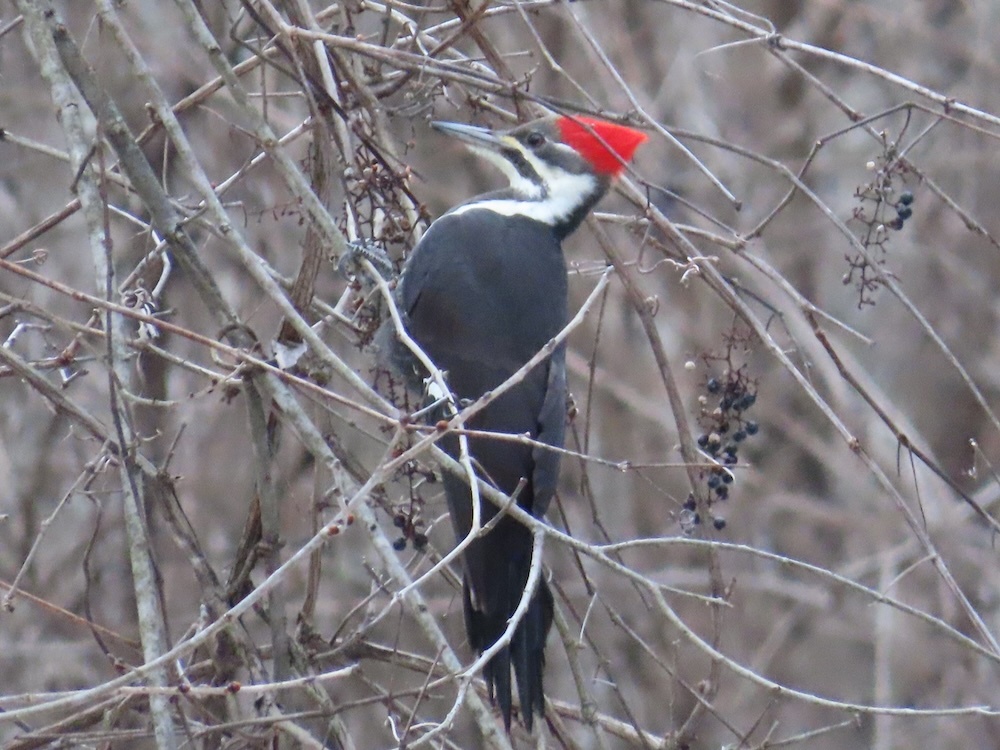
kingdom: Animalia
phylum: Chordata
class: Aves
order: Piciformes
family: Picidae
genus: Dryocopus
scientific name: Dryocopus pileatus
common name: Pileated woodpecker
